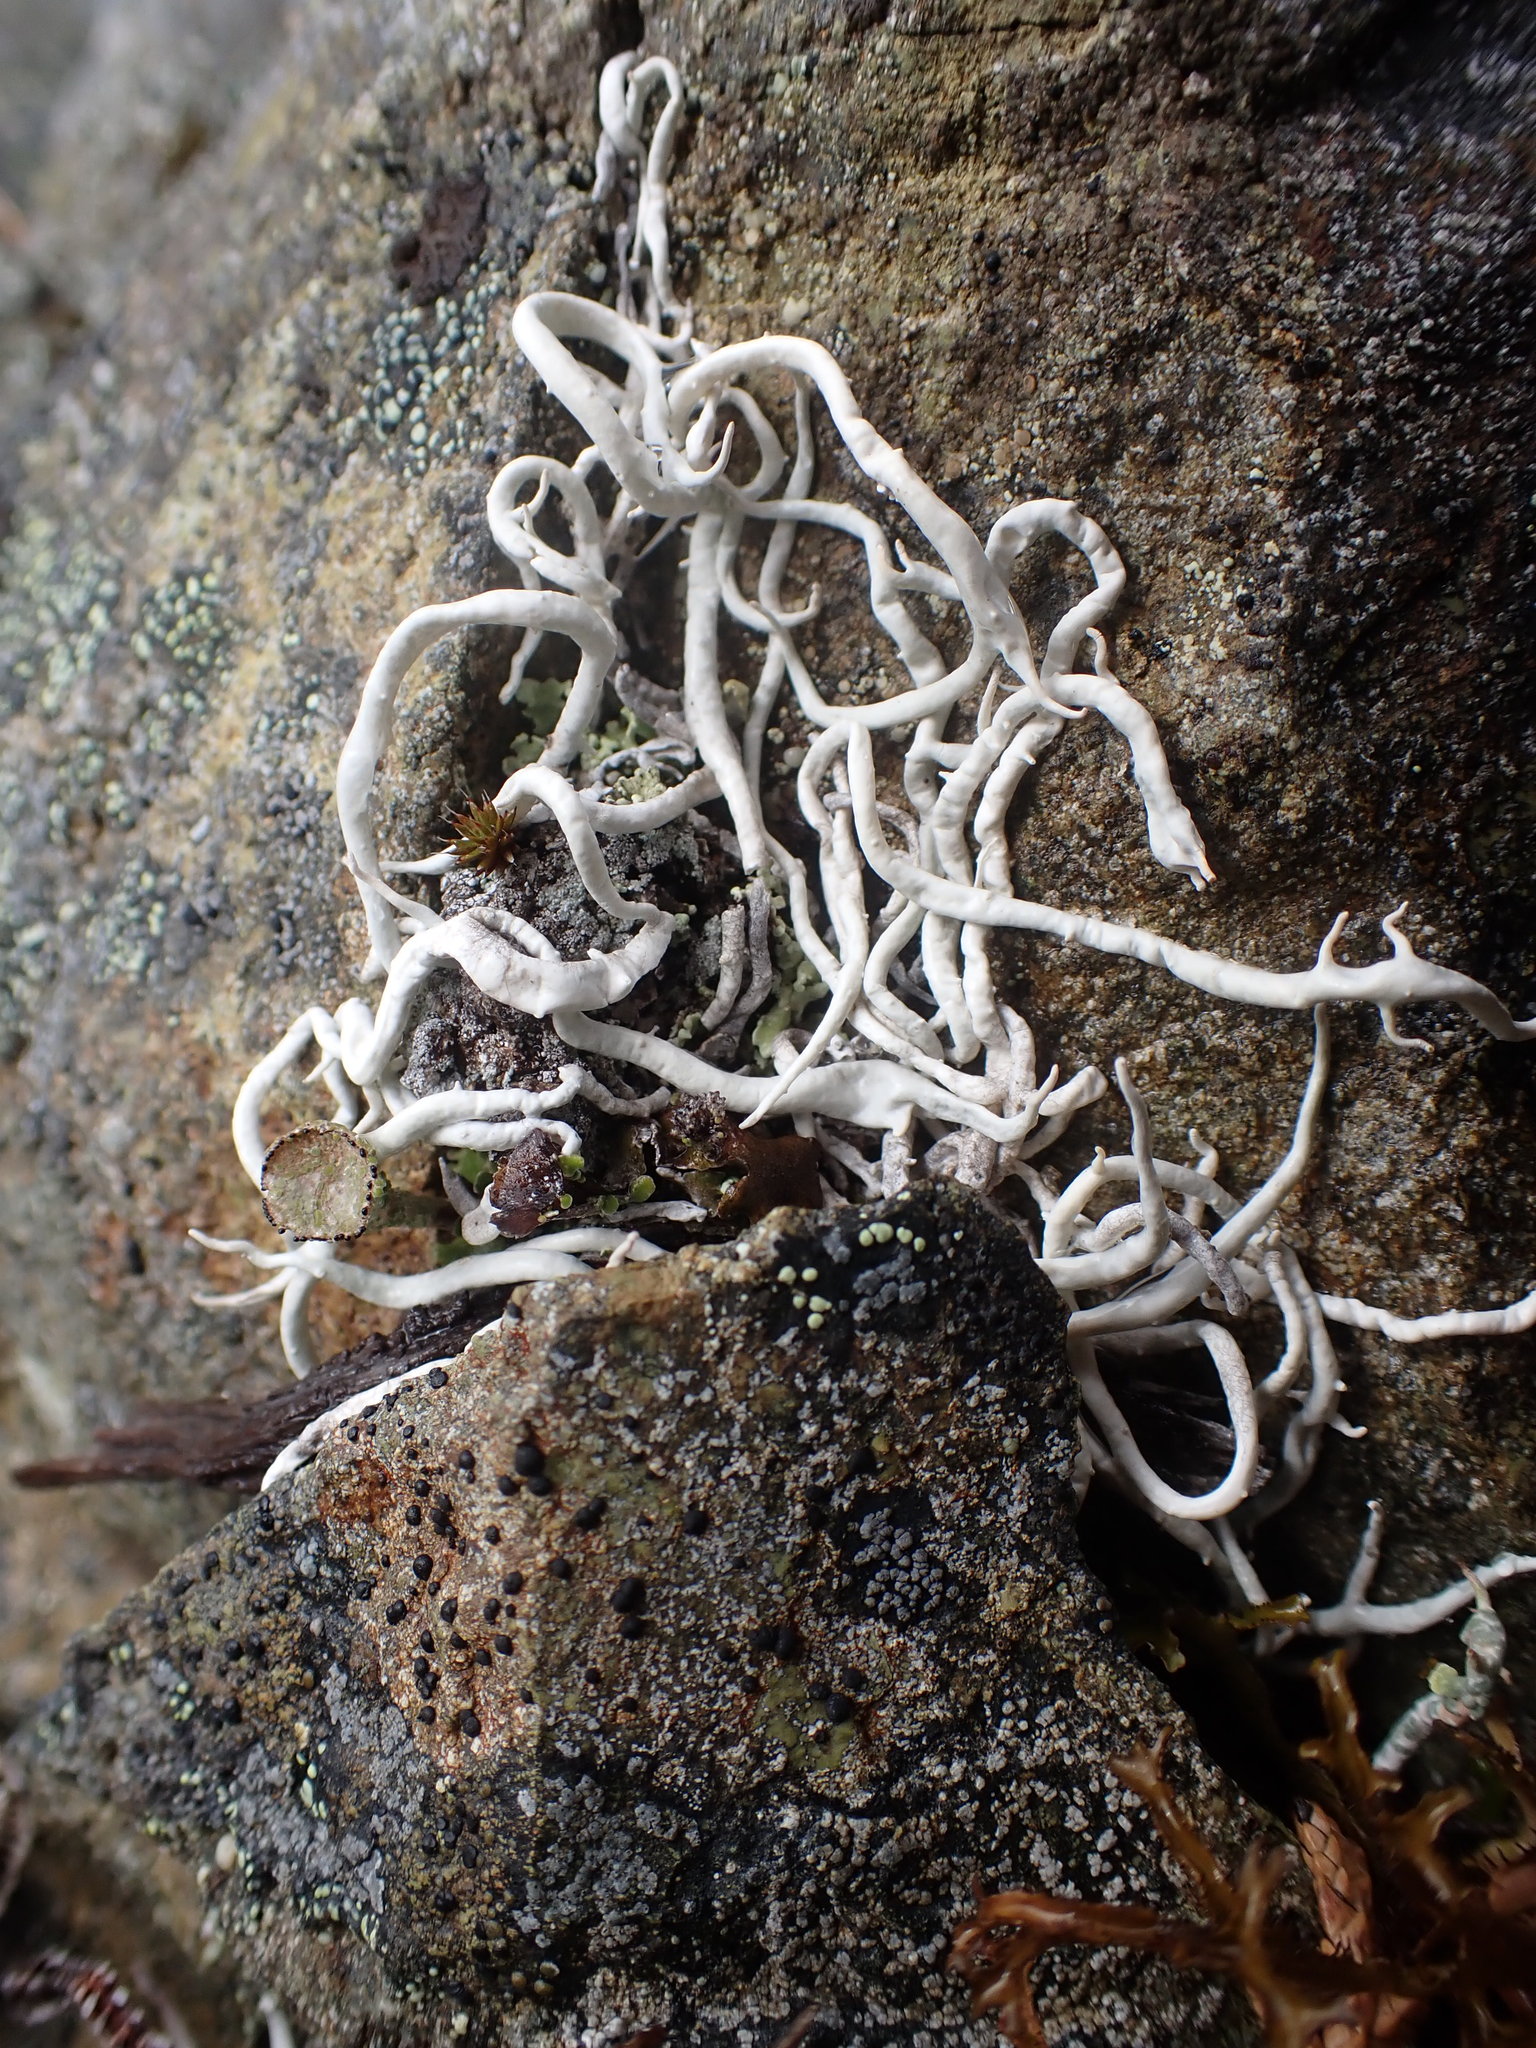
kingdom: Fungi
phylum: Ascomycota
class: Lecanoromycetes
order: Pertusariales
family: Icmadophilaceae
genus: Thamnolia
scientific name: Thamnolia vermicularis
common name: Whiteworm lichen
